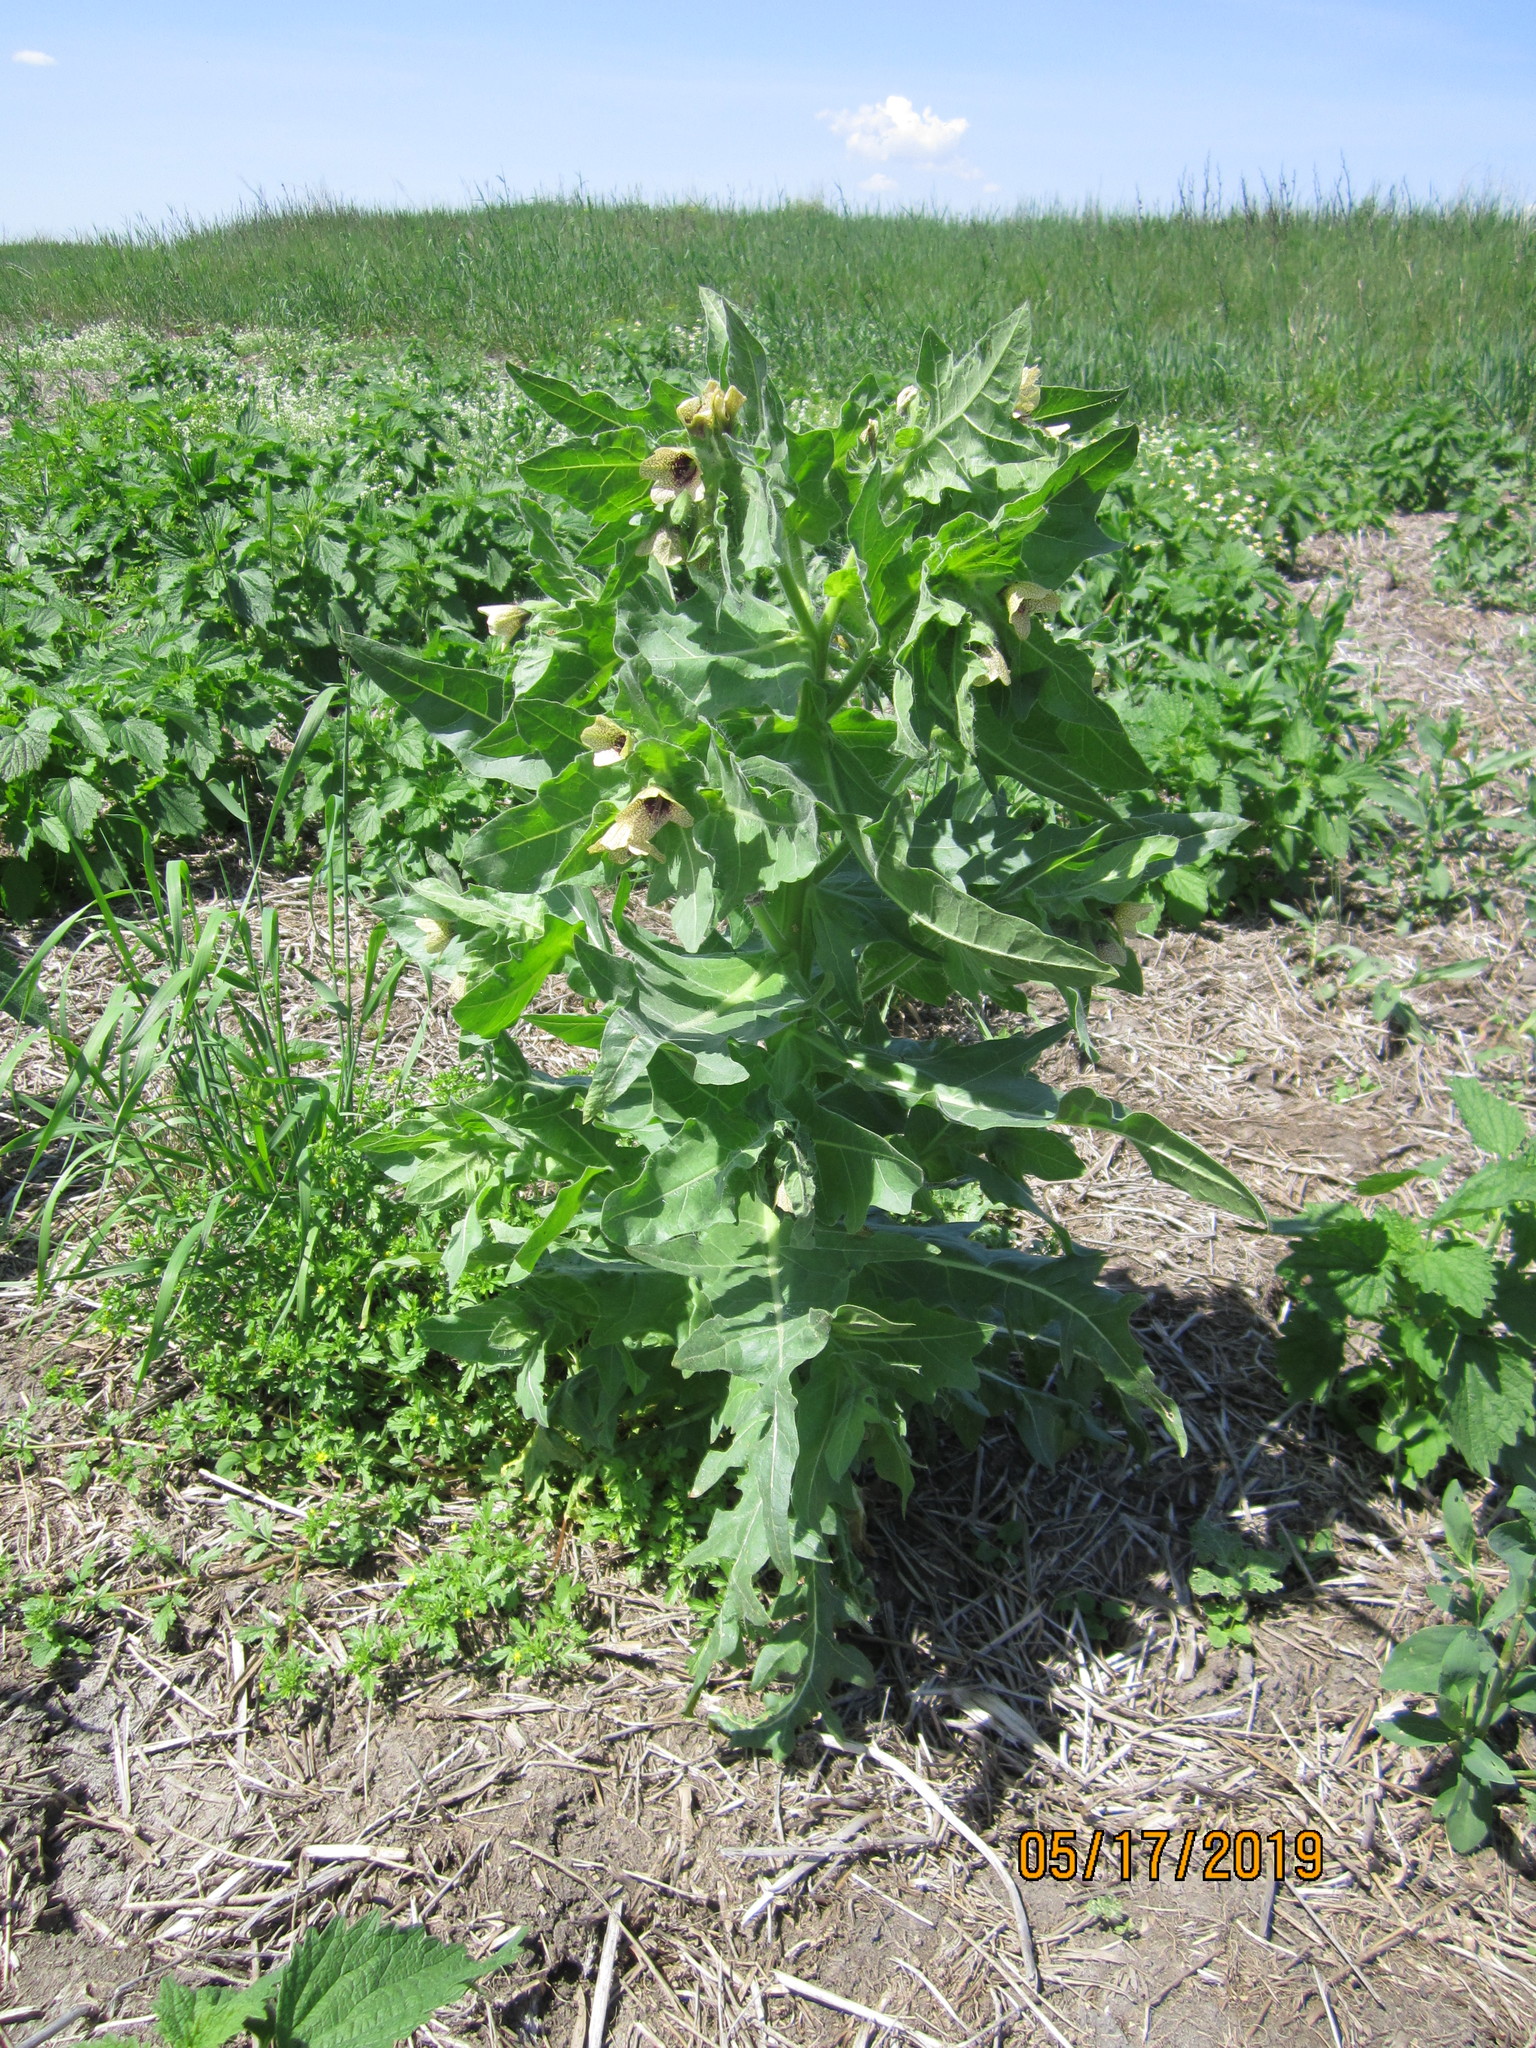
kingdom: Plantae
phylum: Tracheophyta
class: Magnoliopsida
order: Solanales
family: Solanaceae
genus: Hyoscyamus
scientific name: Hyoscyamus niger
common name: Henbane
